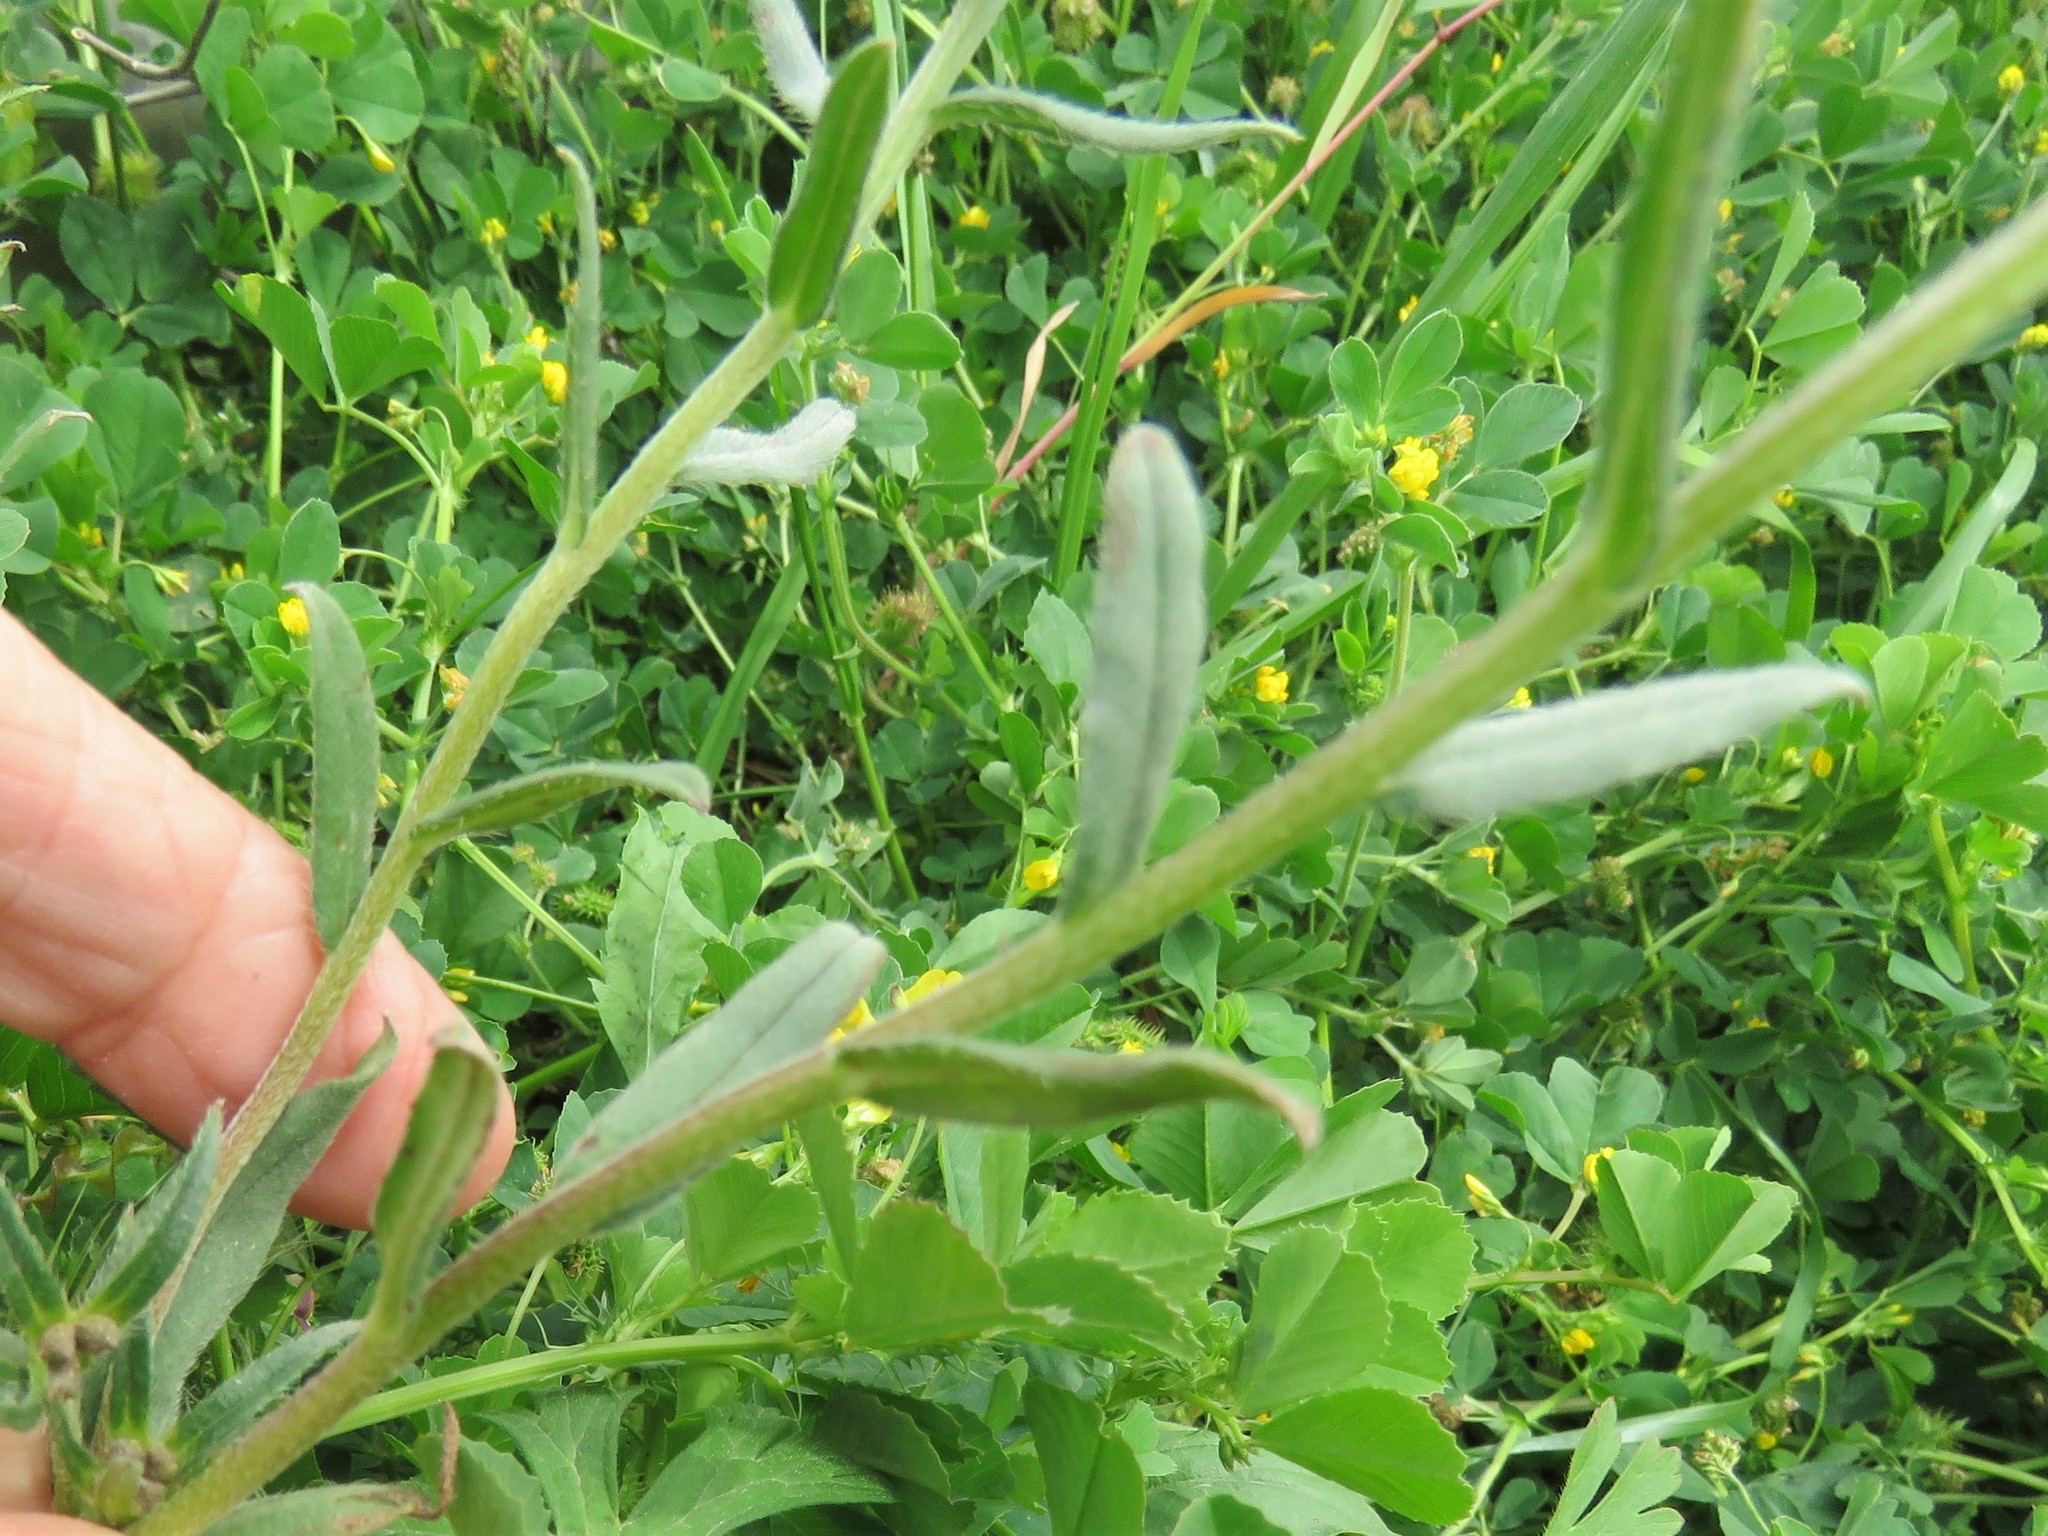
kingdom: Plantae
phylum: Tracheophyta
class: Magnoliopsida
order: Boraginales
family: Boraginaceae
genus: Buglossoides
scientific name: Buglossoides arvensis
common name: Corn gromwell
